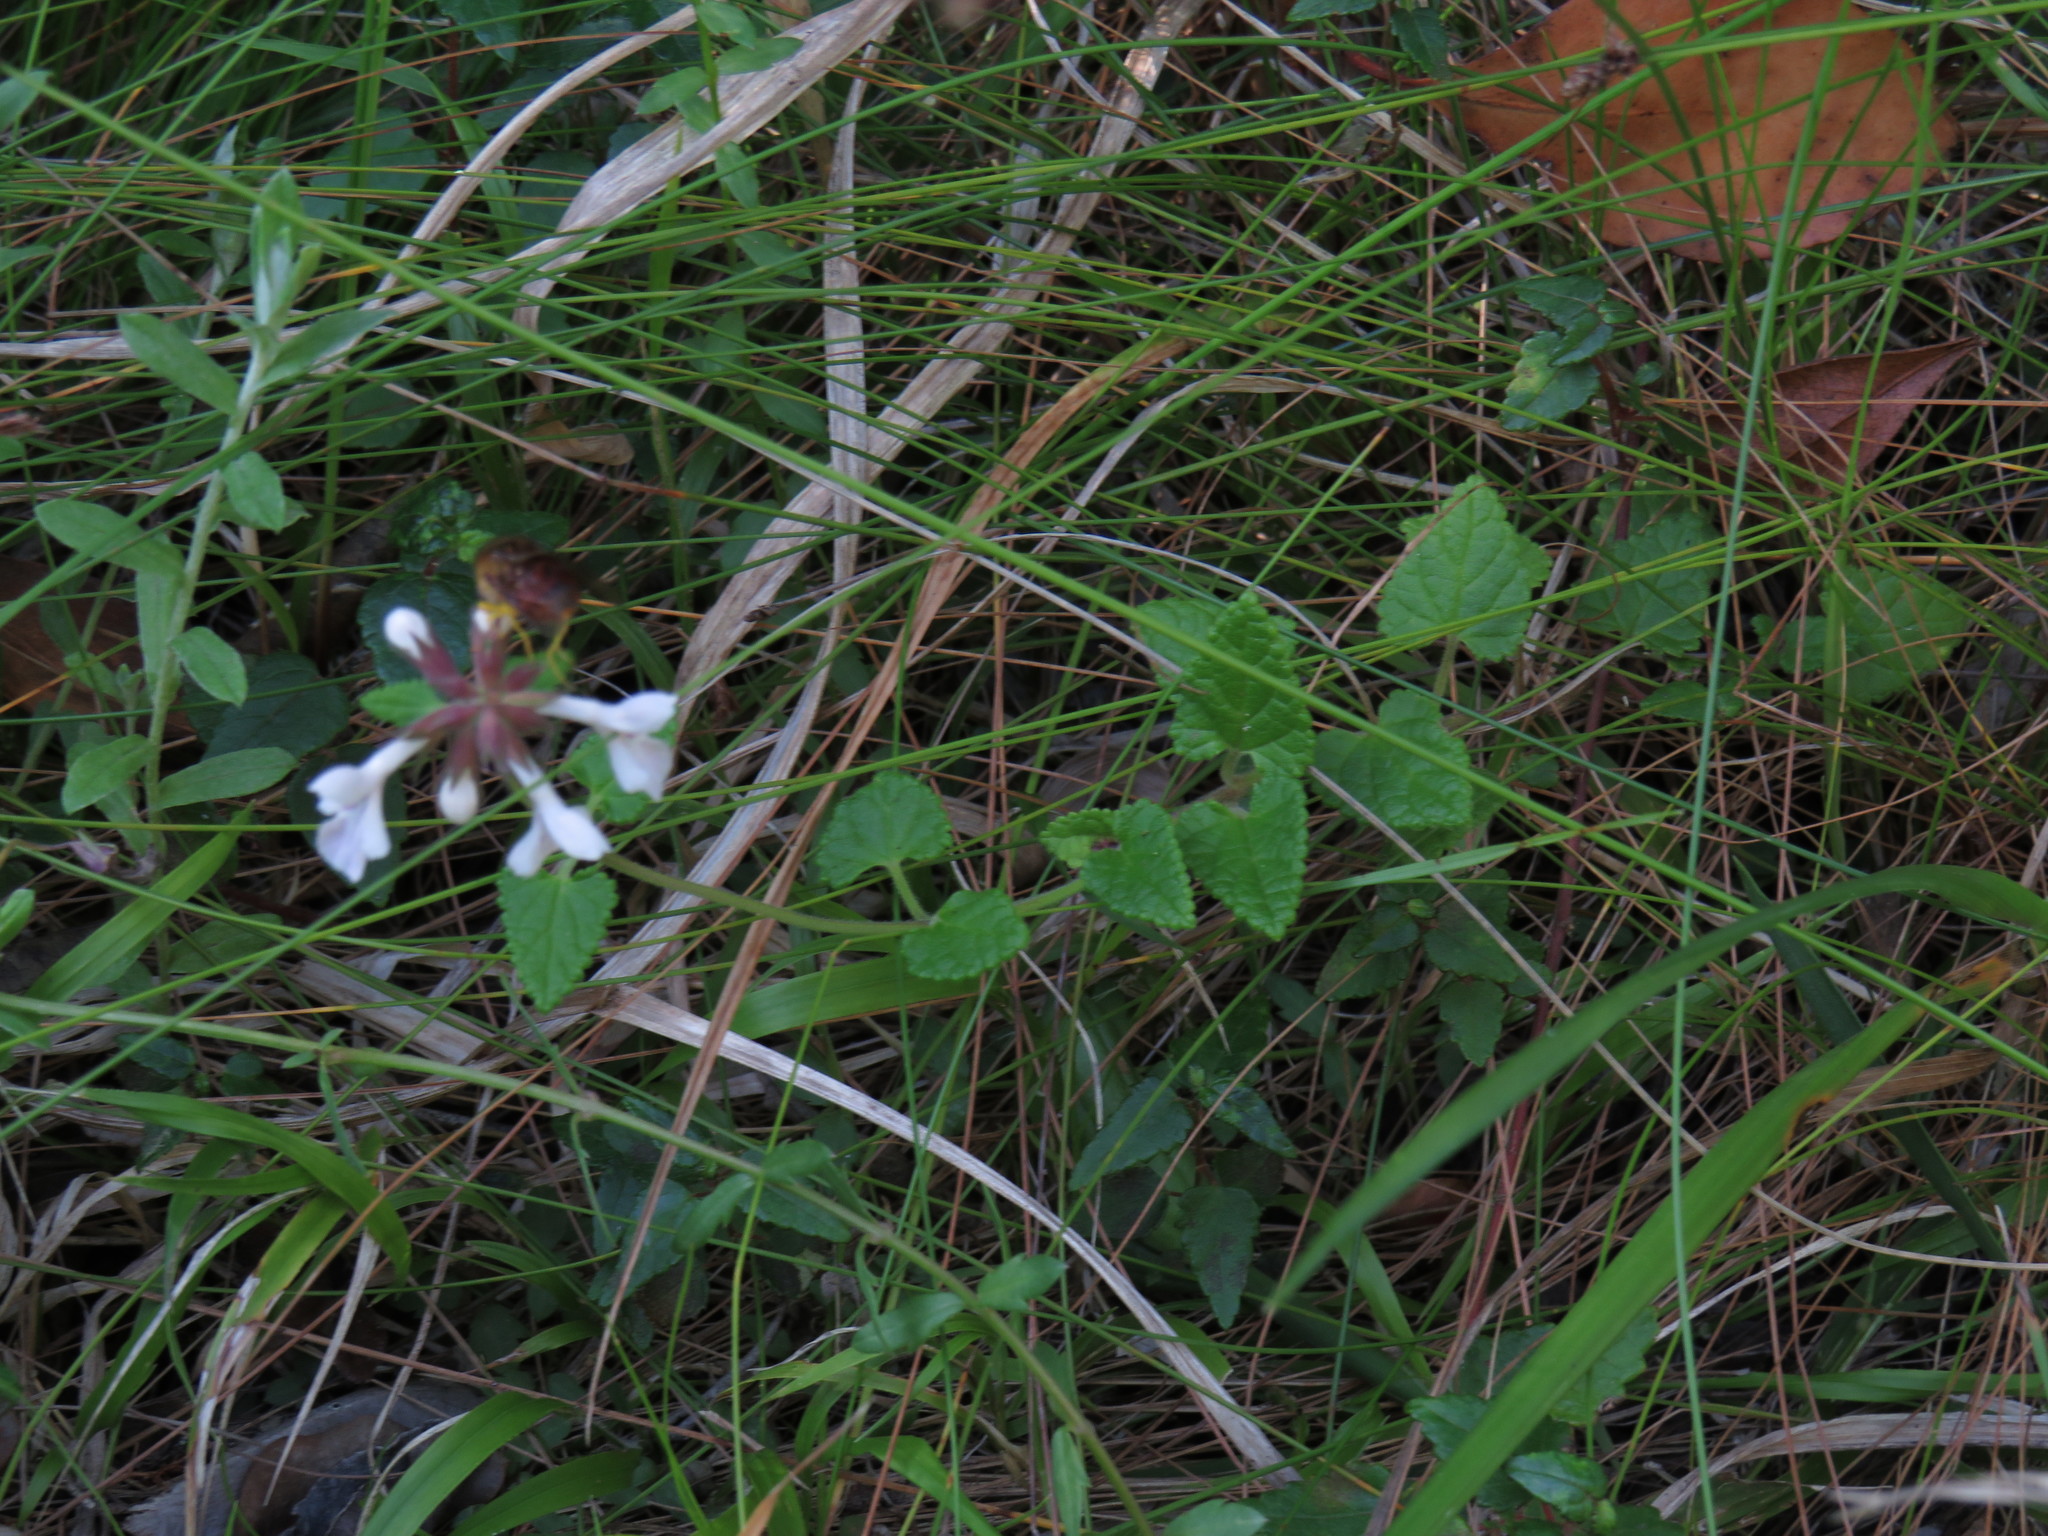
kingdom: Plantae
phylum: Tracheophyta
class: Magnoliopsida
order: Lamiales
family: Lamiaceae
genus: Stachys
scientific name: Stachys aethiopica
